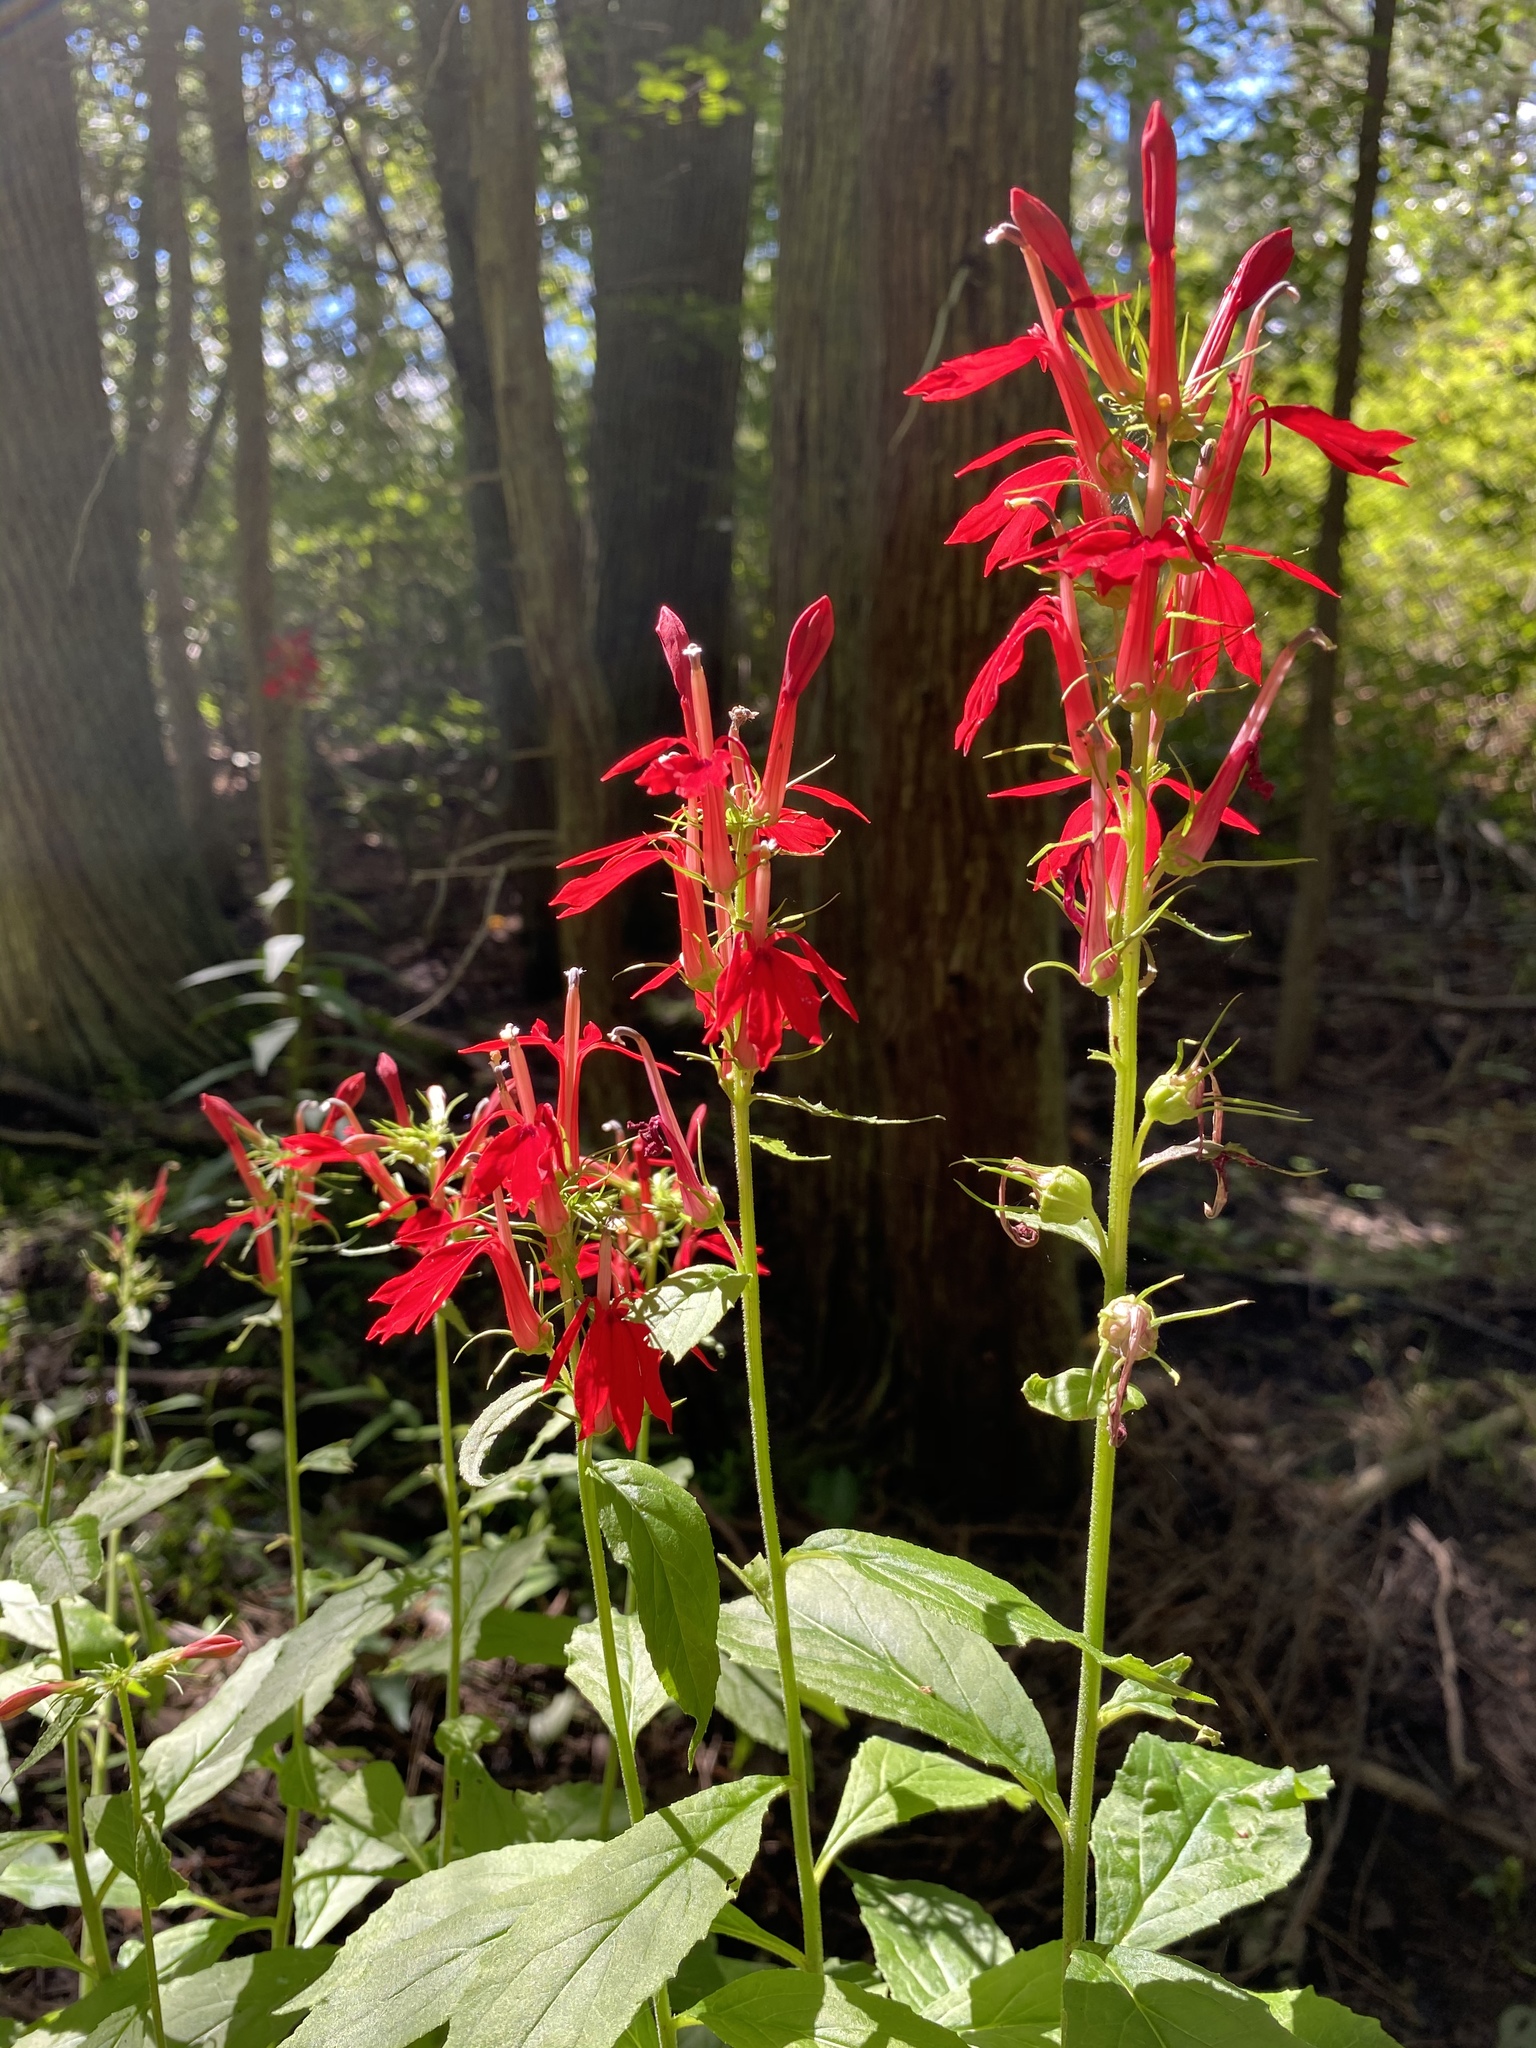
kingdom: Plantae
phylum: Tracheophyta
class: Magnoliopsida
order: Asterales
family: Campanulaceae
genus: Lobelia
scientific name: Lobelia cardinalis
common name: Cardinal flower
